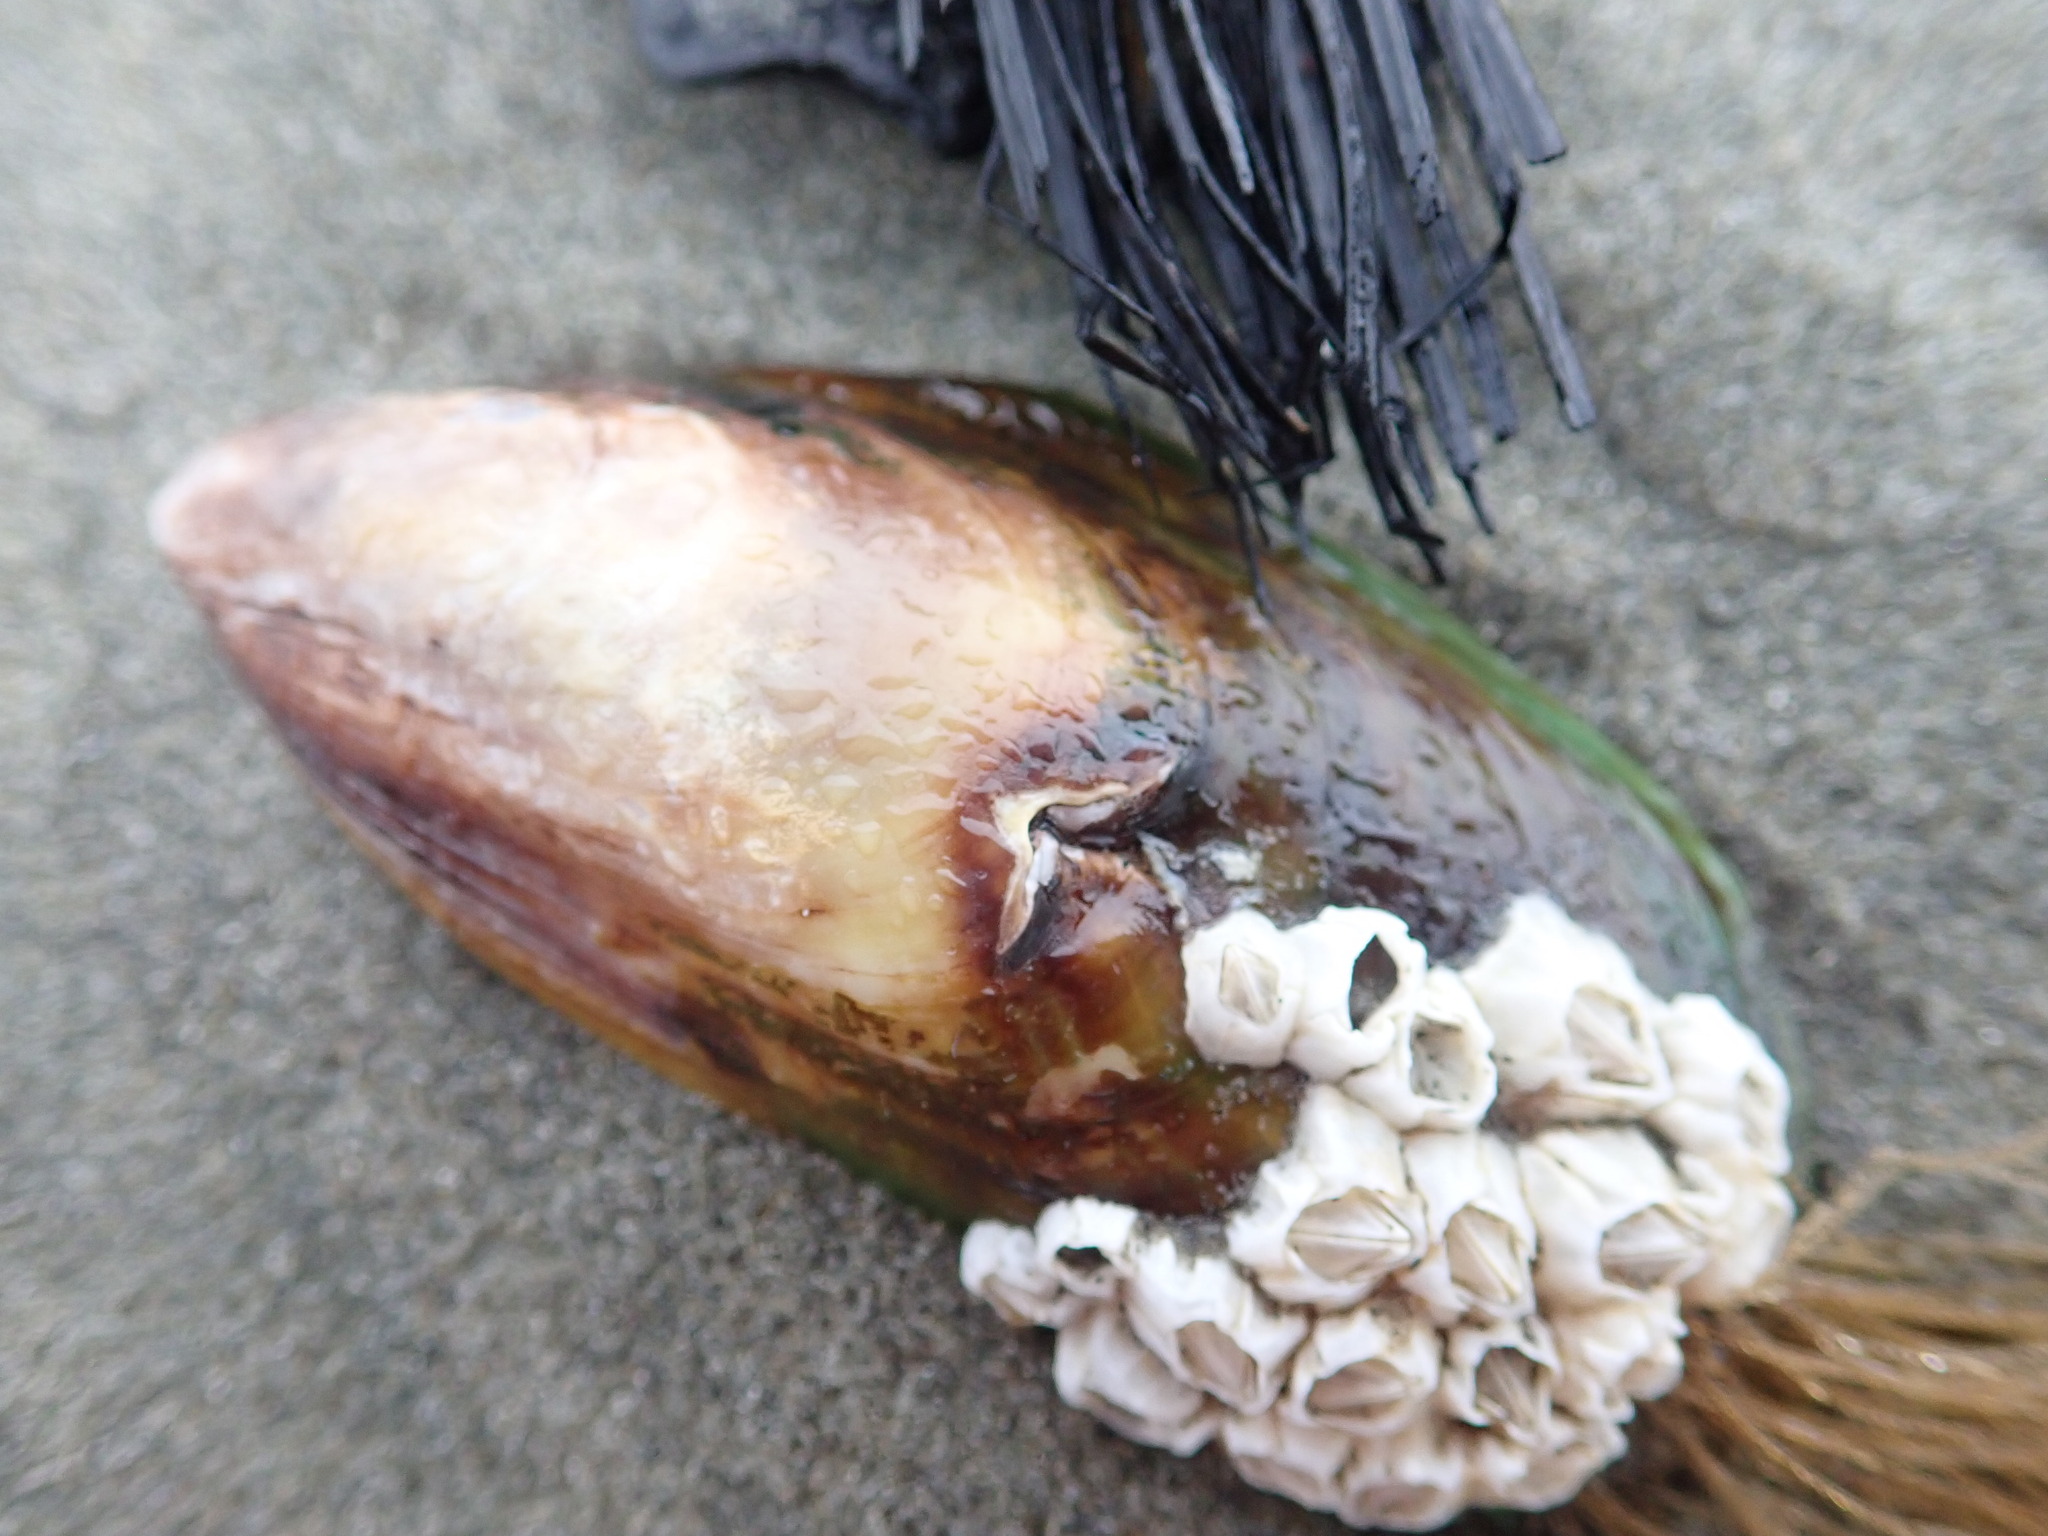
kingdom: Animalia
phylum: Arthropoda
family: Elminiidae
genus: Austrominius
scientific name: Austrominius modestus
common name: Australasian barnacle
